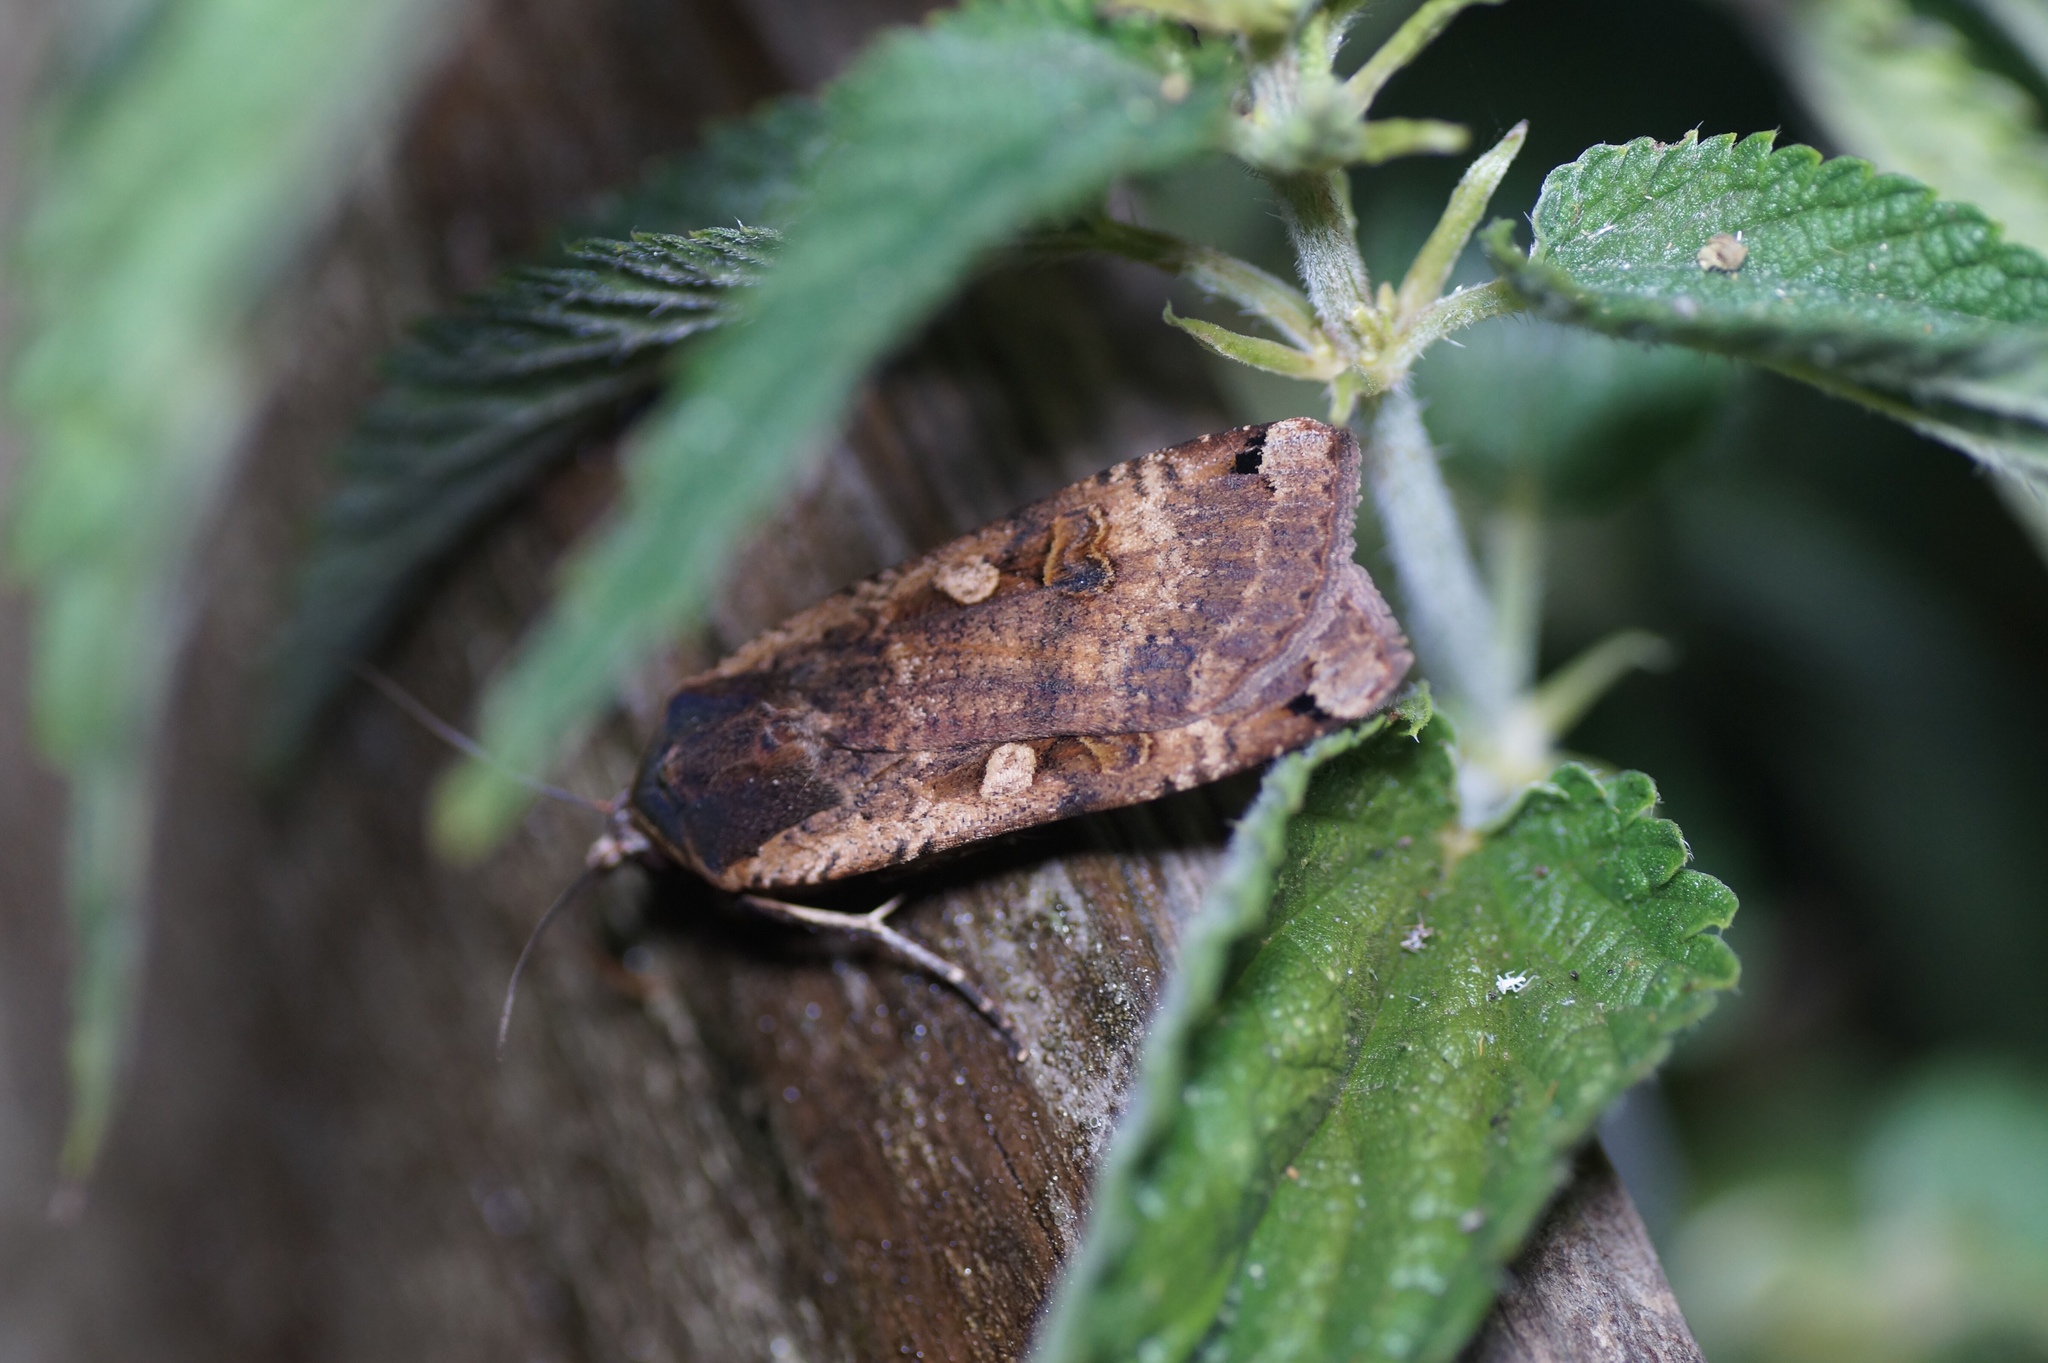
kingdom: Animalia
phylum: Arthropoda
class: Insecta
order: Lepidoptera
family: Noctuidae
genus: Noctua
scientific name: Noctua pronuba
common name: Large yellow underwing
